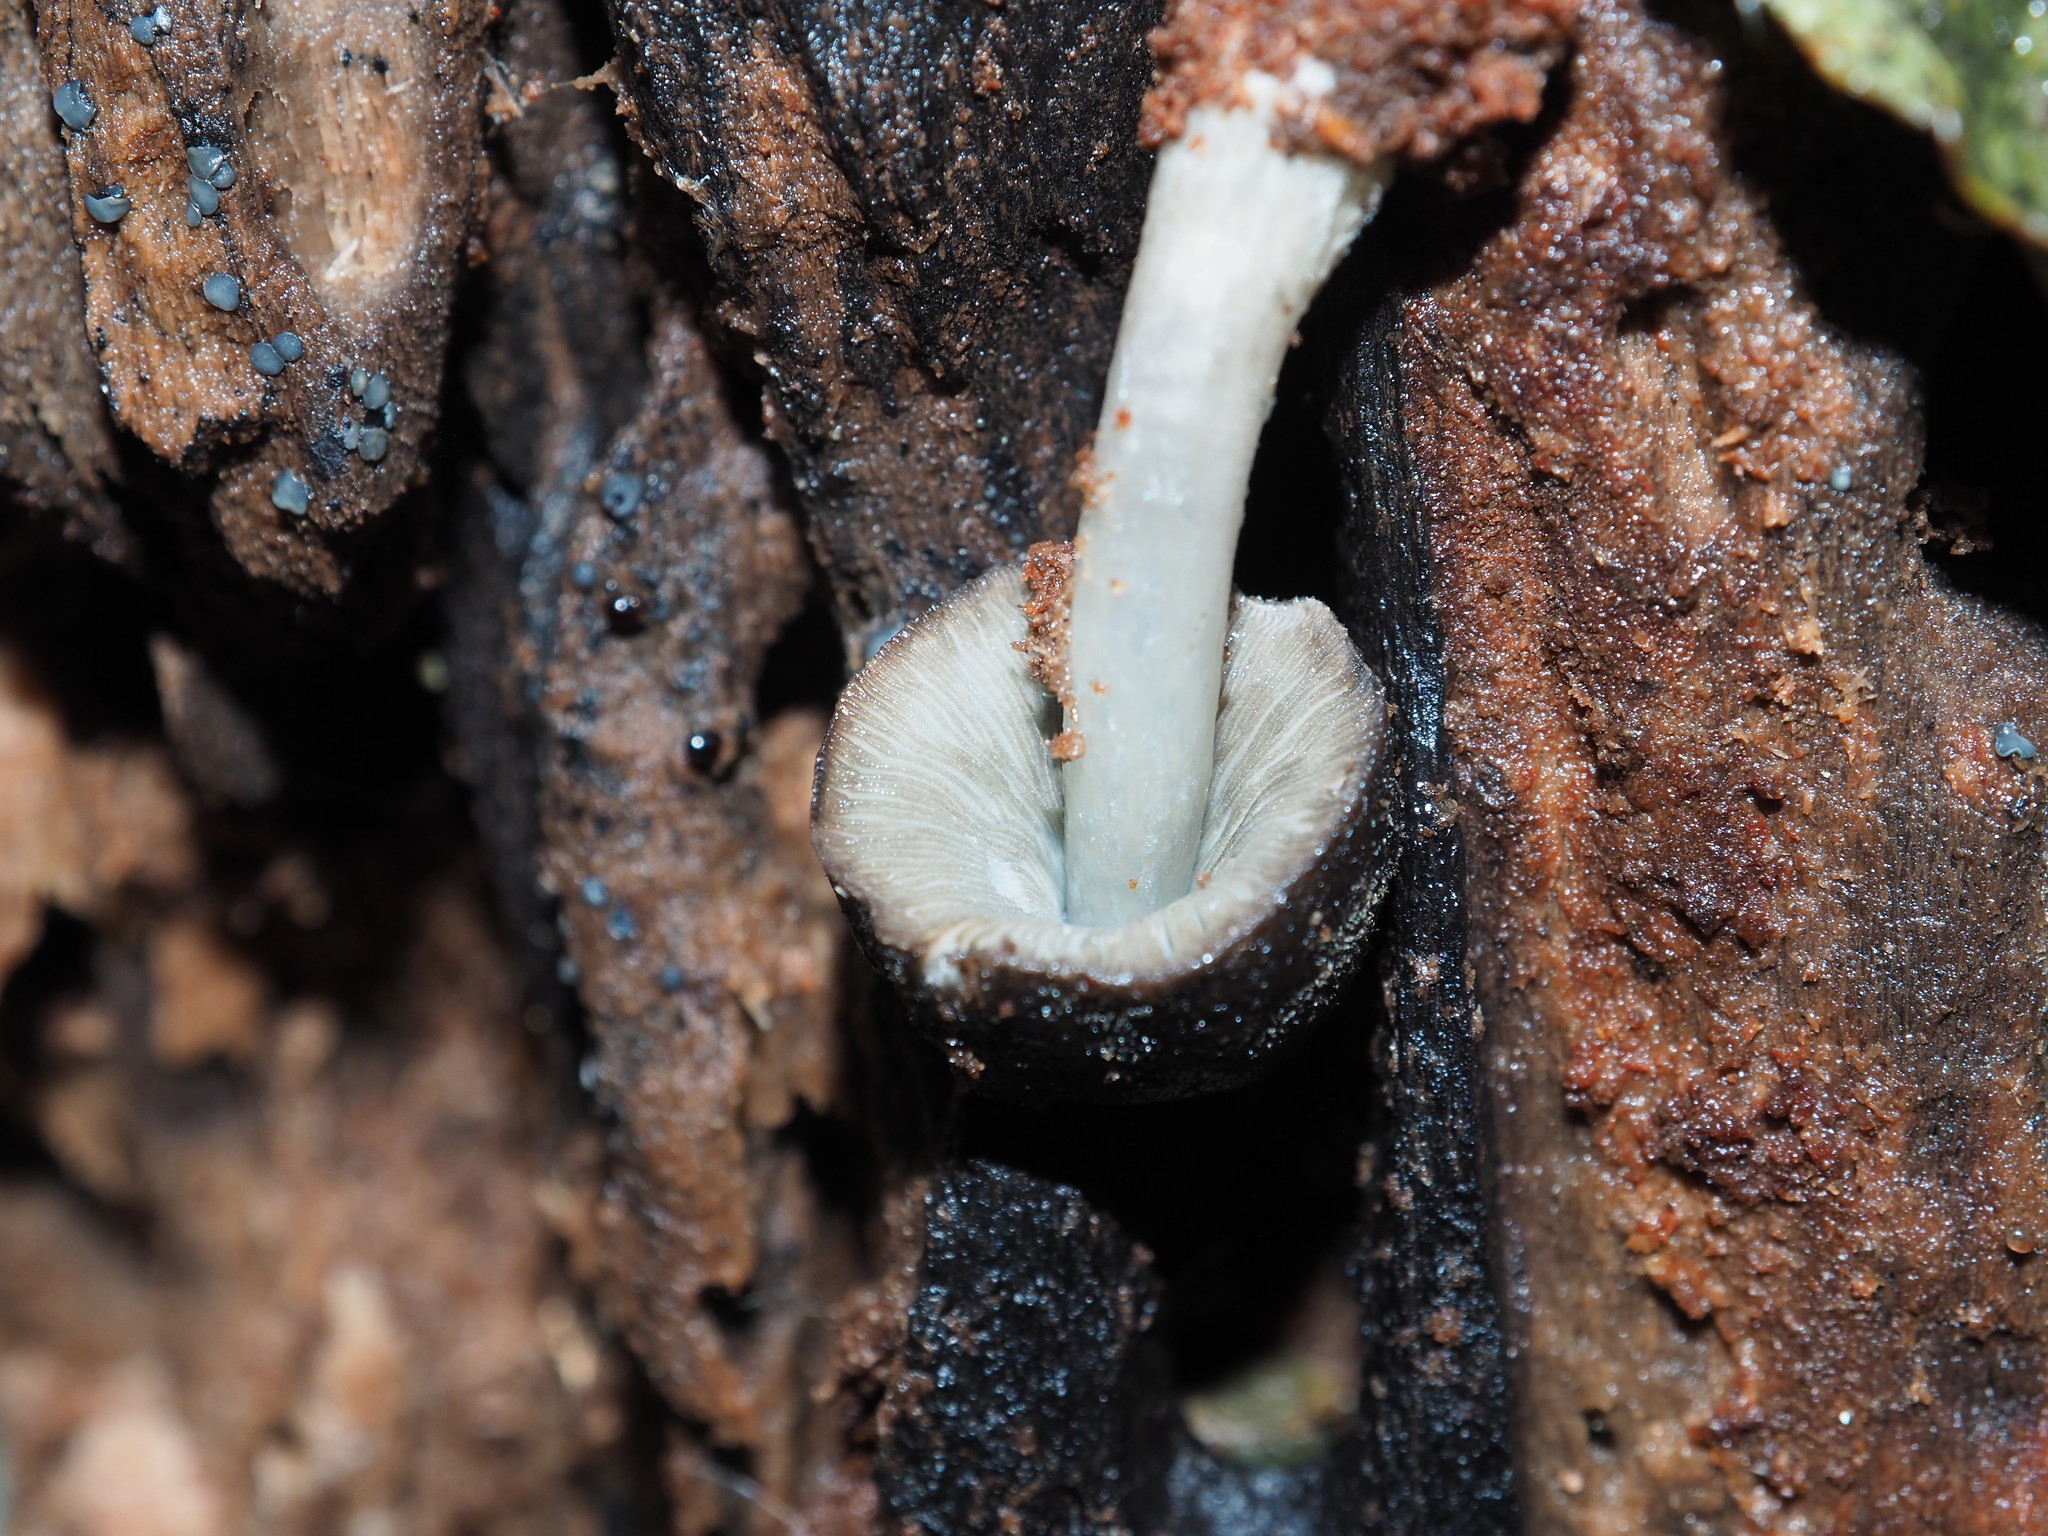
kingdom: Fungi
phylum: Basidiomycota
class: Agaricomycetes
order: Agaricales
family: Pluteaceae
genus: Pluteus
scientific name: Pluteus velutinornatus
